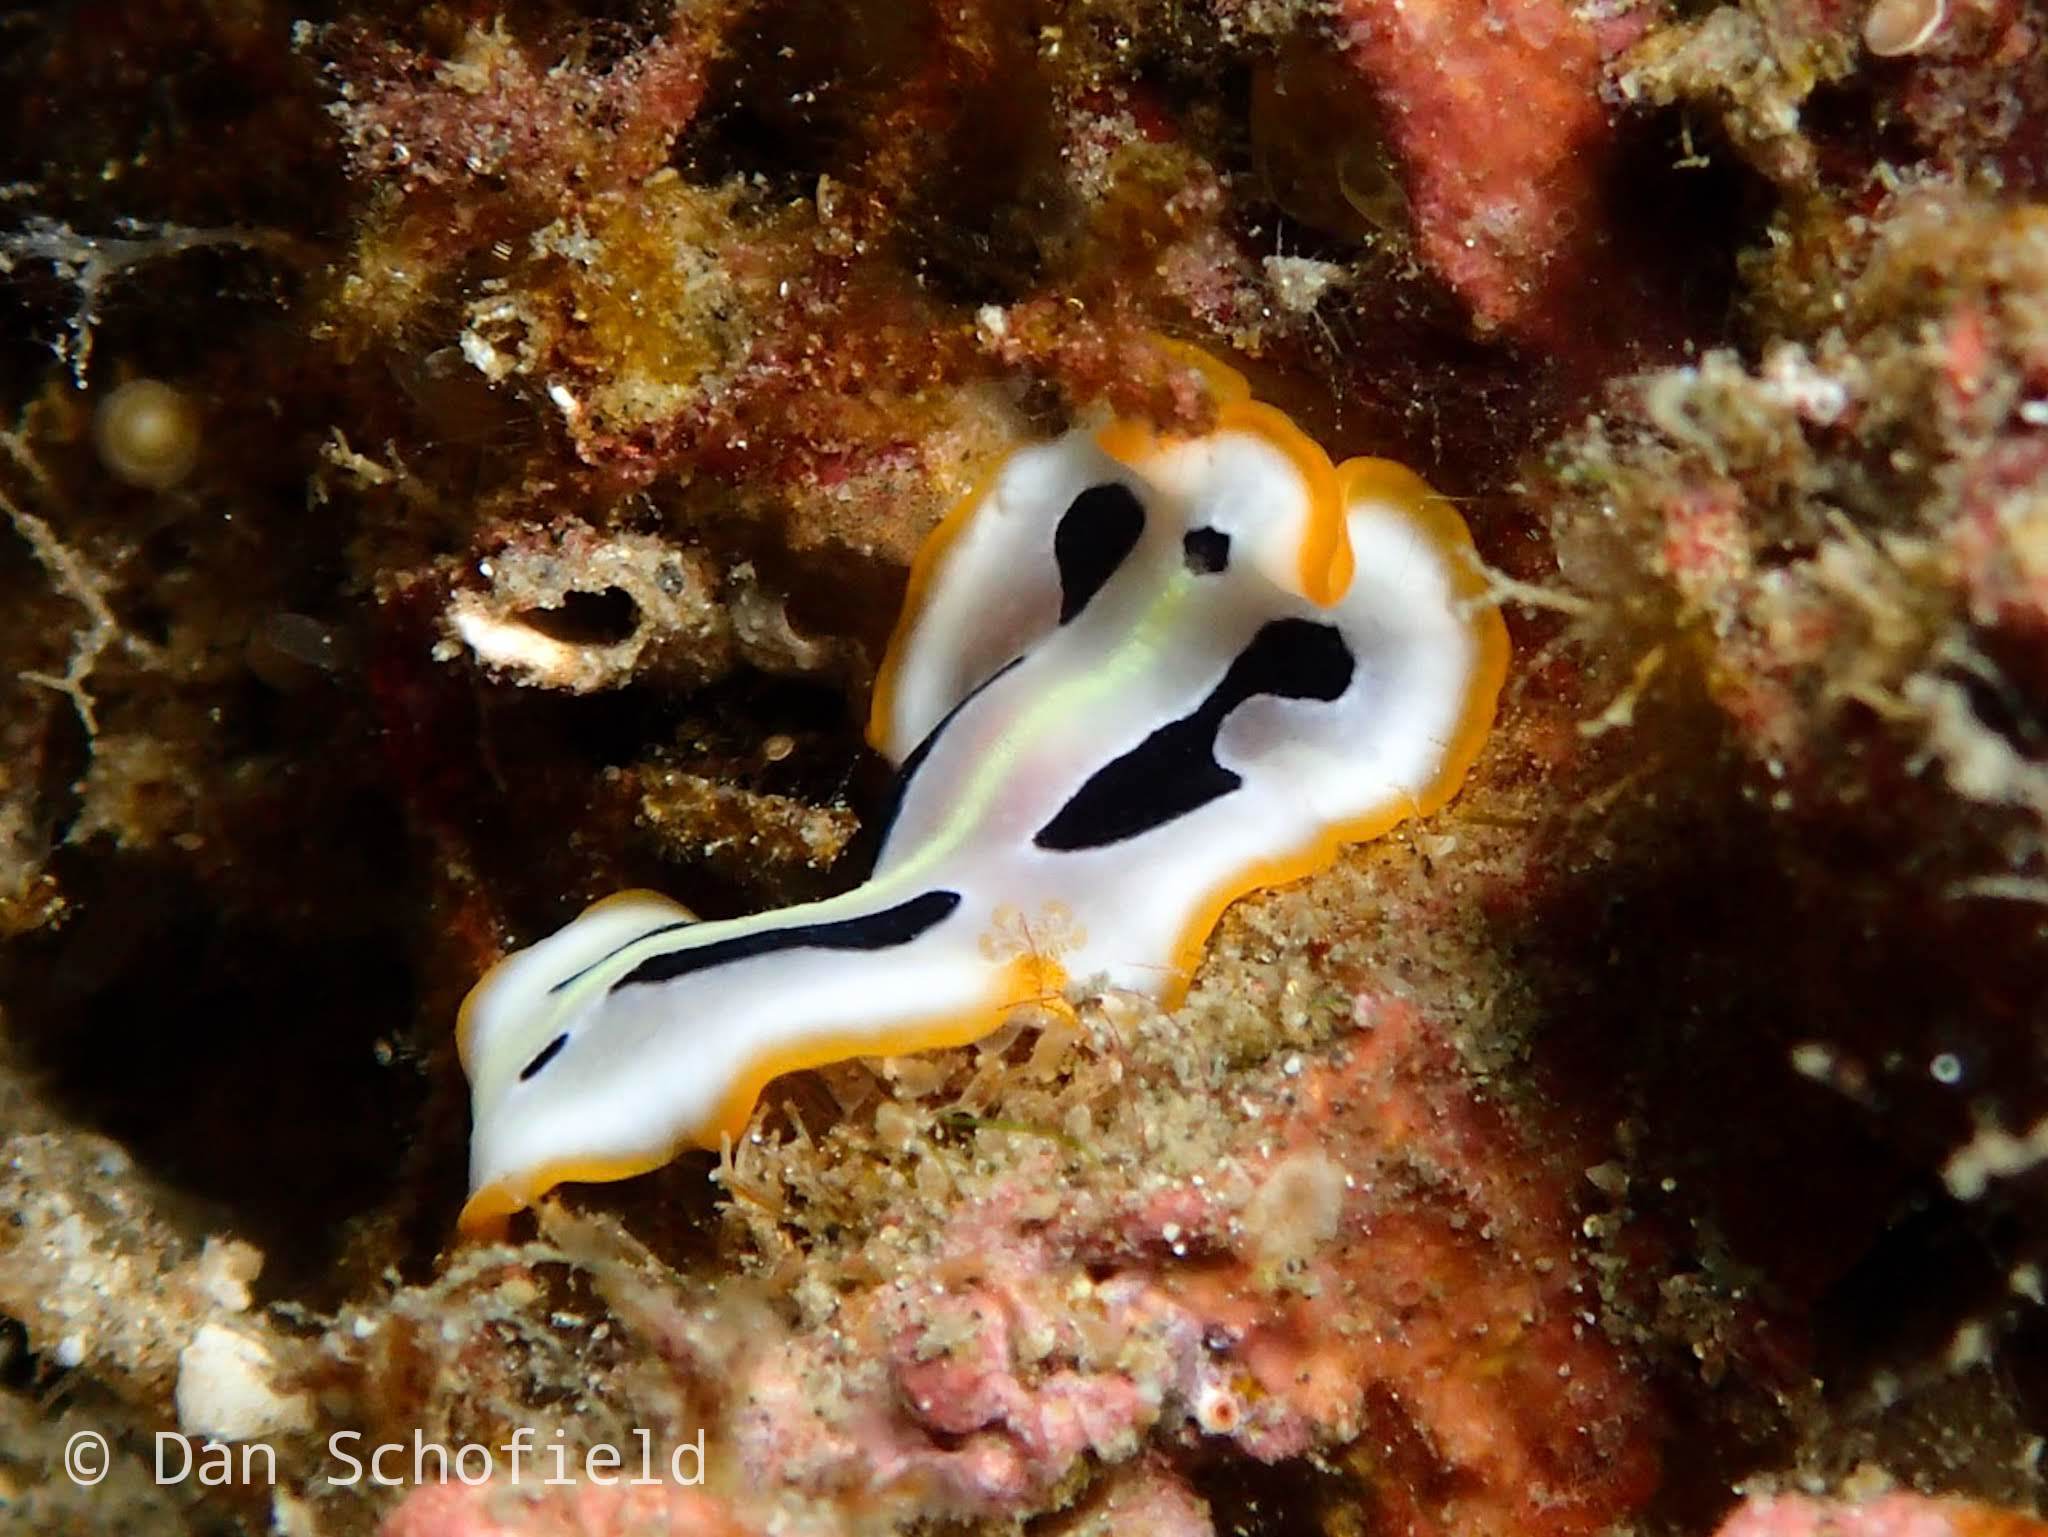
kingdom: Animalia
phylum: Platyhelminthes
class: Turbellaria
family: Pseudocerotidae
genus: Pseudoceros
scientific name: Pseudoceros scriptus
